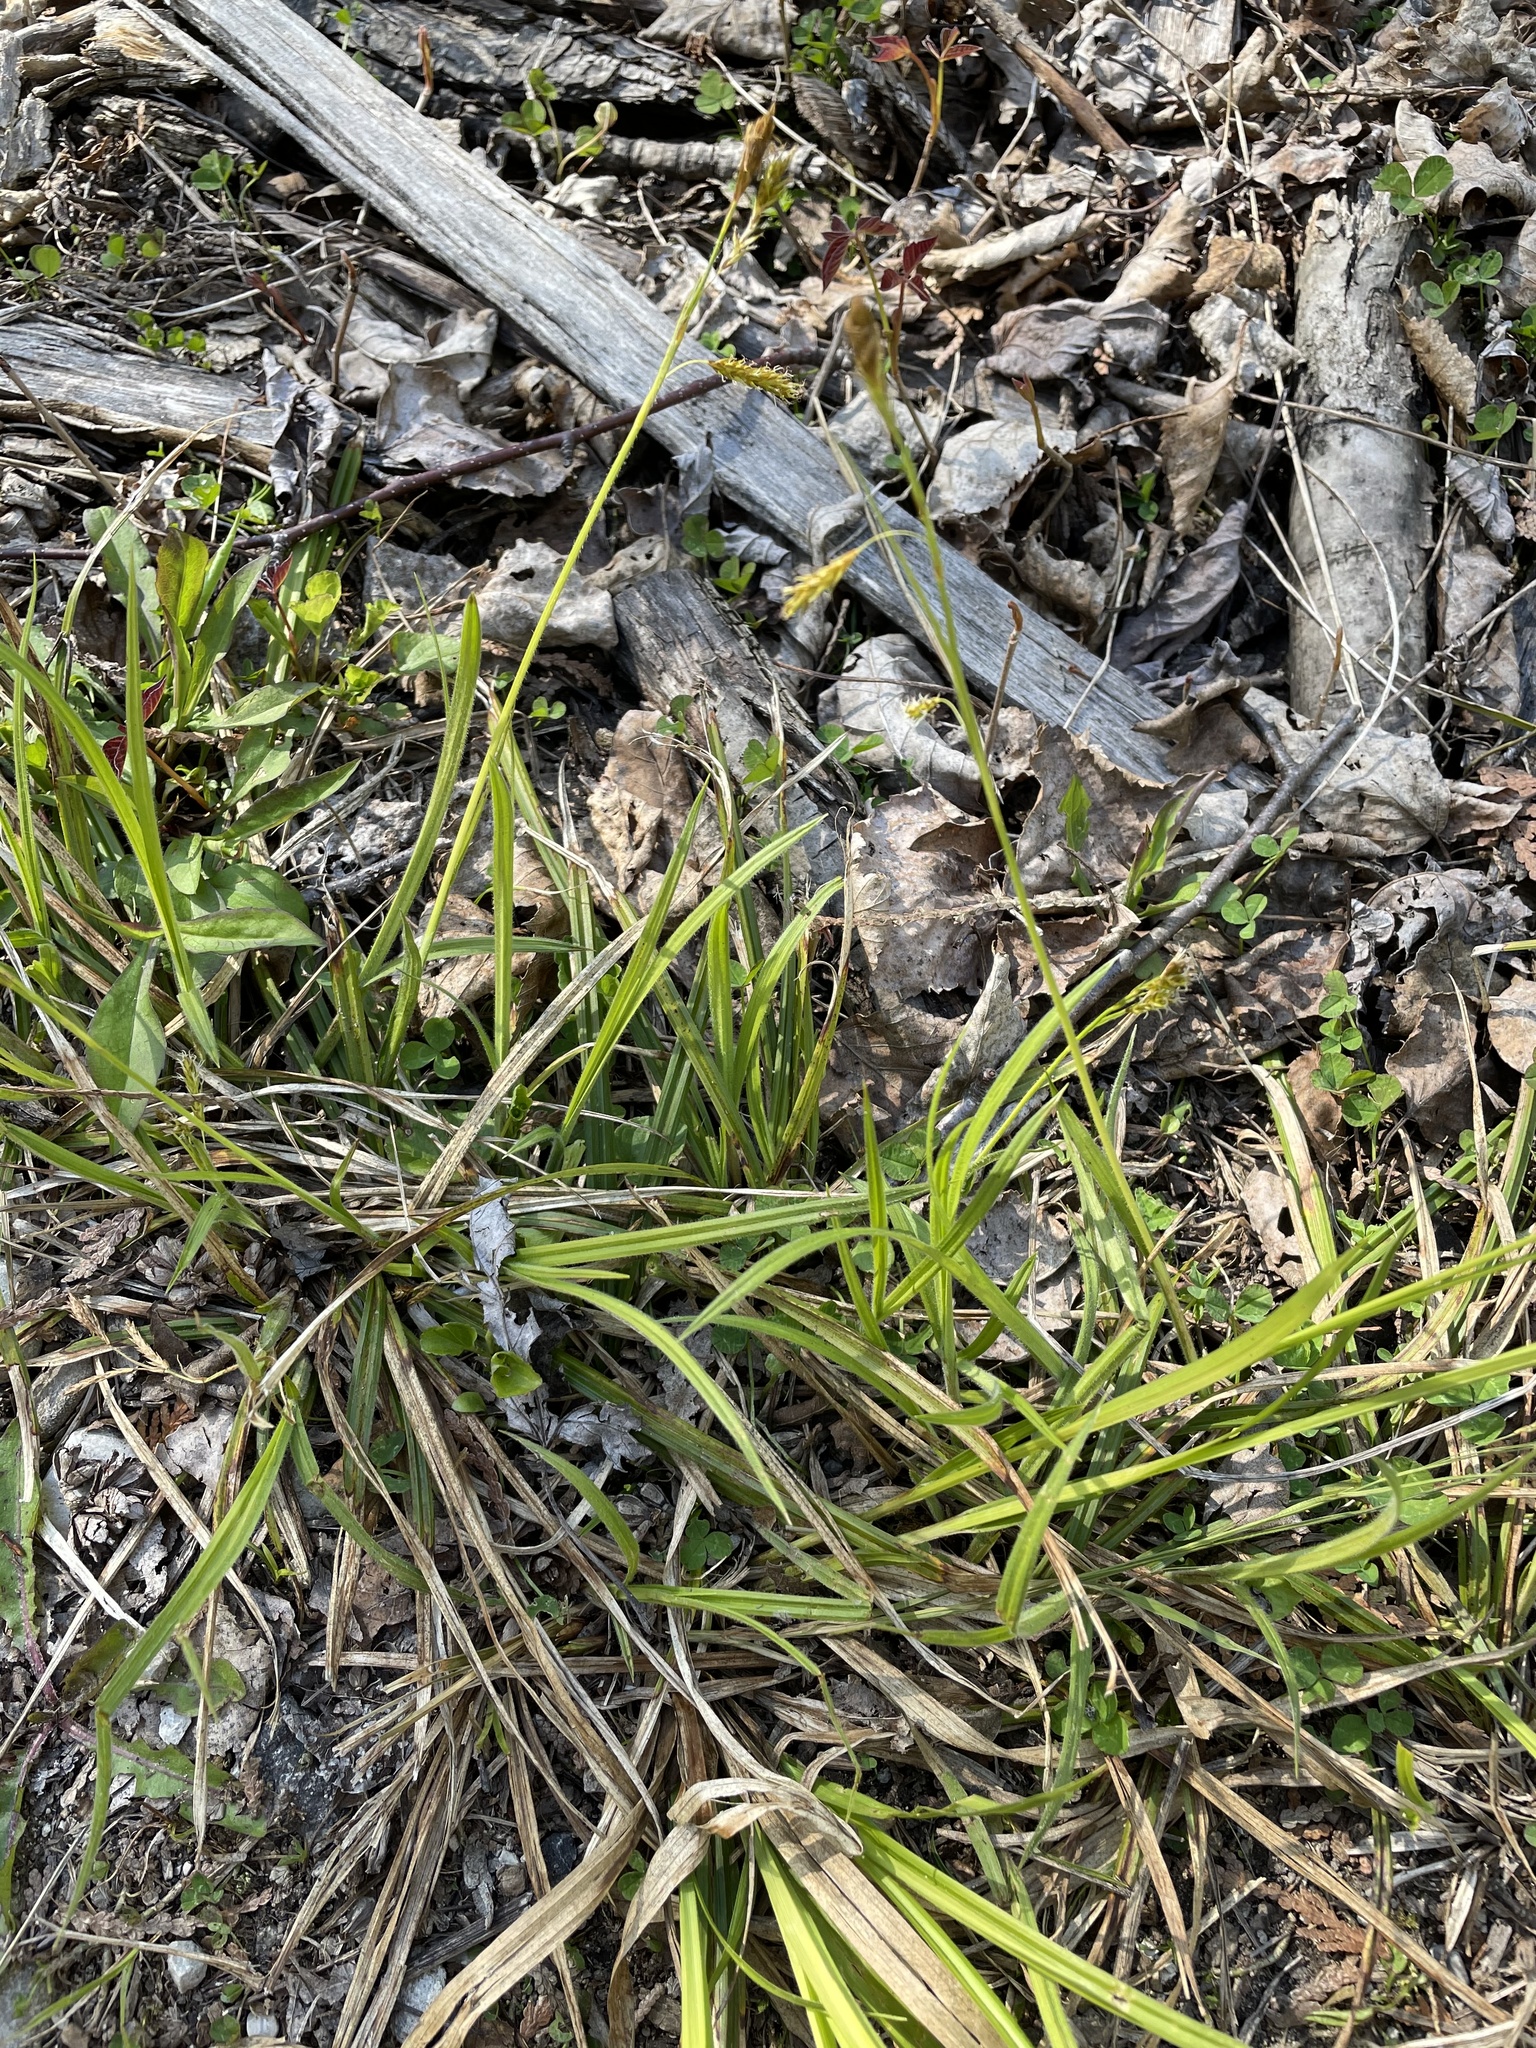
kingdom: Plantae
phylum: Tracheophyta
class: Liliopsida
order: Poales
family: Cyperaceae
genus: Carex
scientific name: Carex castanea
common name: Chestnut sedge
